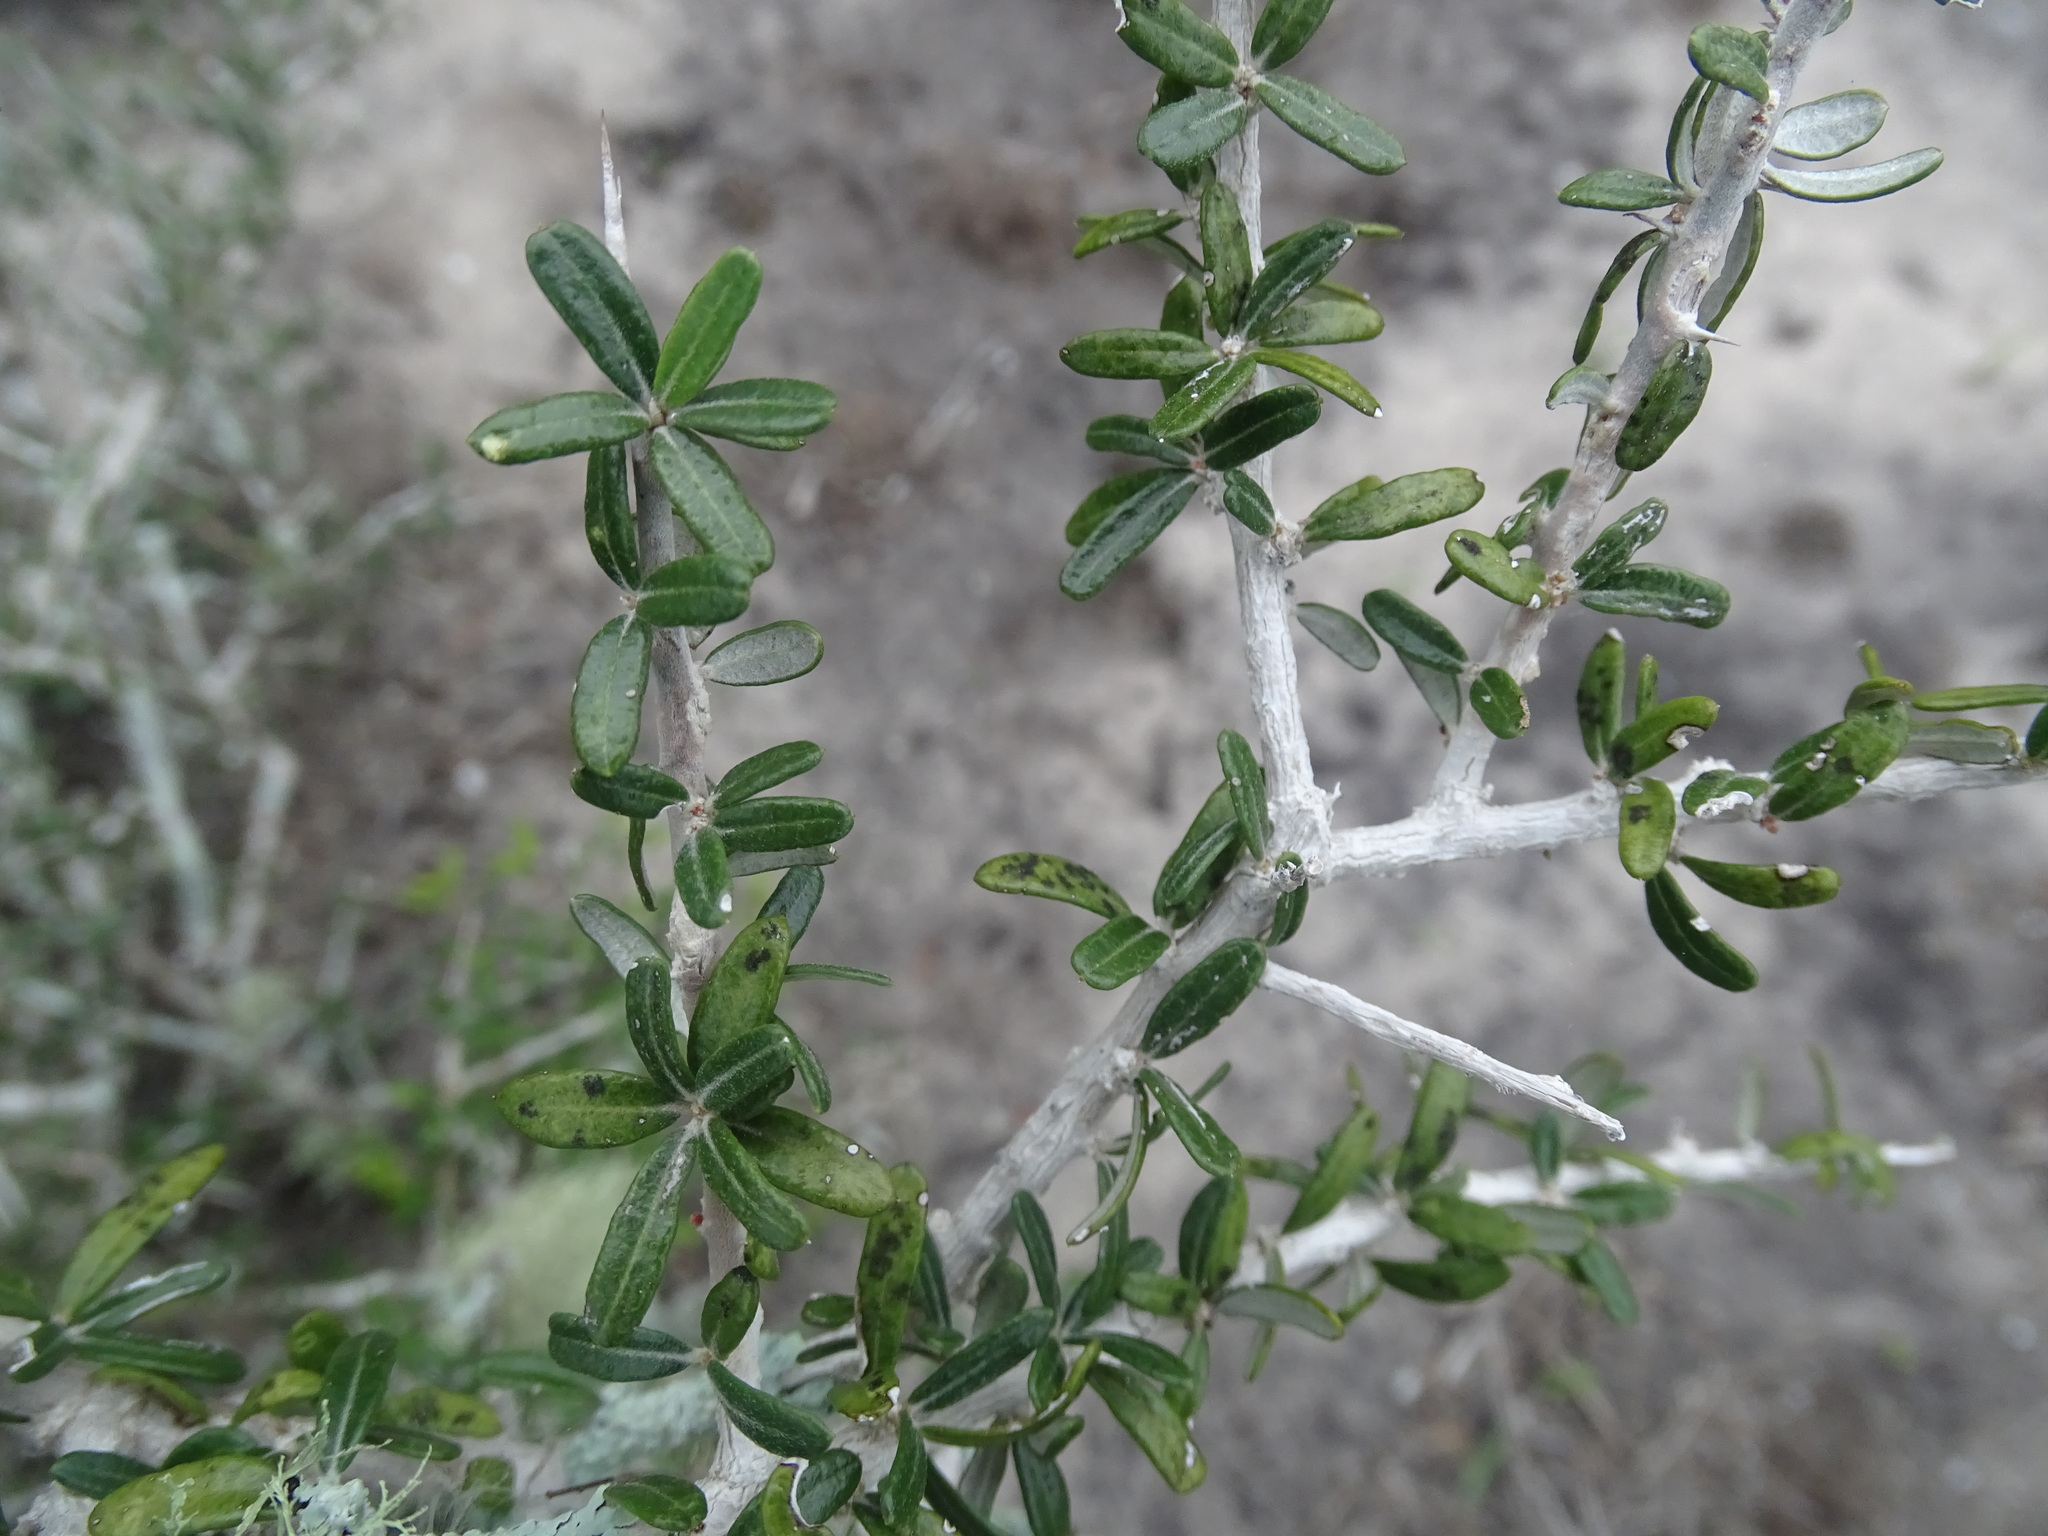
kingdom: Plantae
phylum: Tracheophyta
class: Magnoliopsida
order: Sapindales
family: Simaroubaceae
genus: Castela
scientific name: Castela tortuosa
